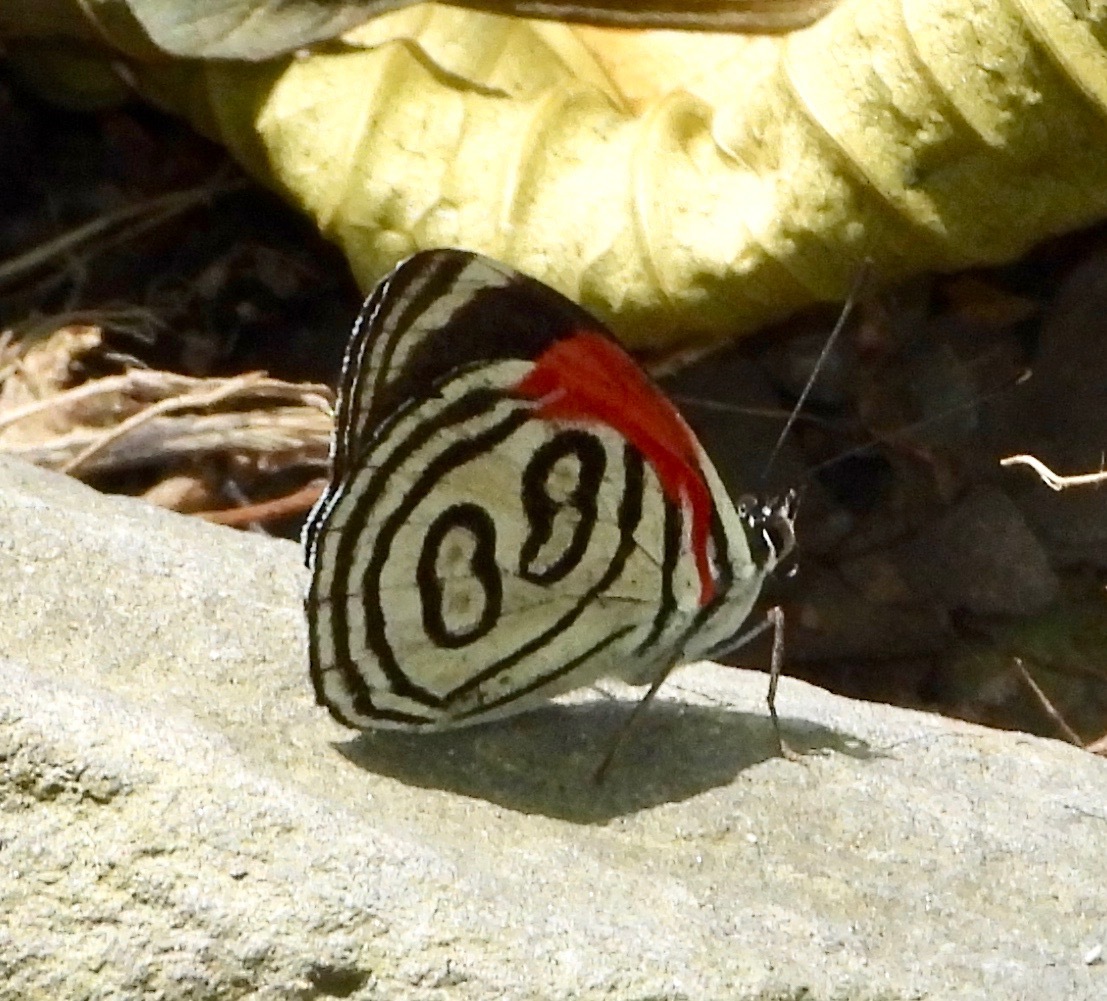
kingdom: Animalia
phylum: Arthropoda
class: Insecta
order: Lepidoptera
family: Nymphalidae
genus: Diaethria
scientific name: Diaethria gabaza
